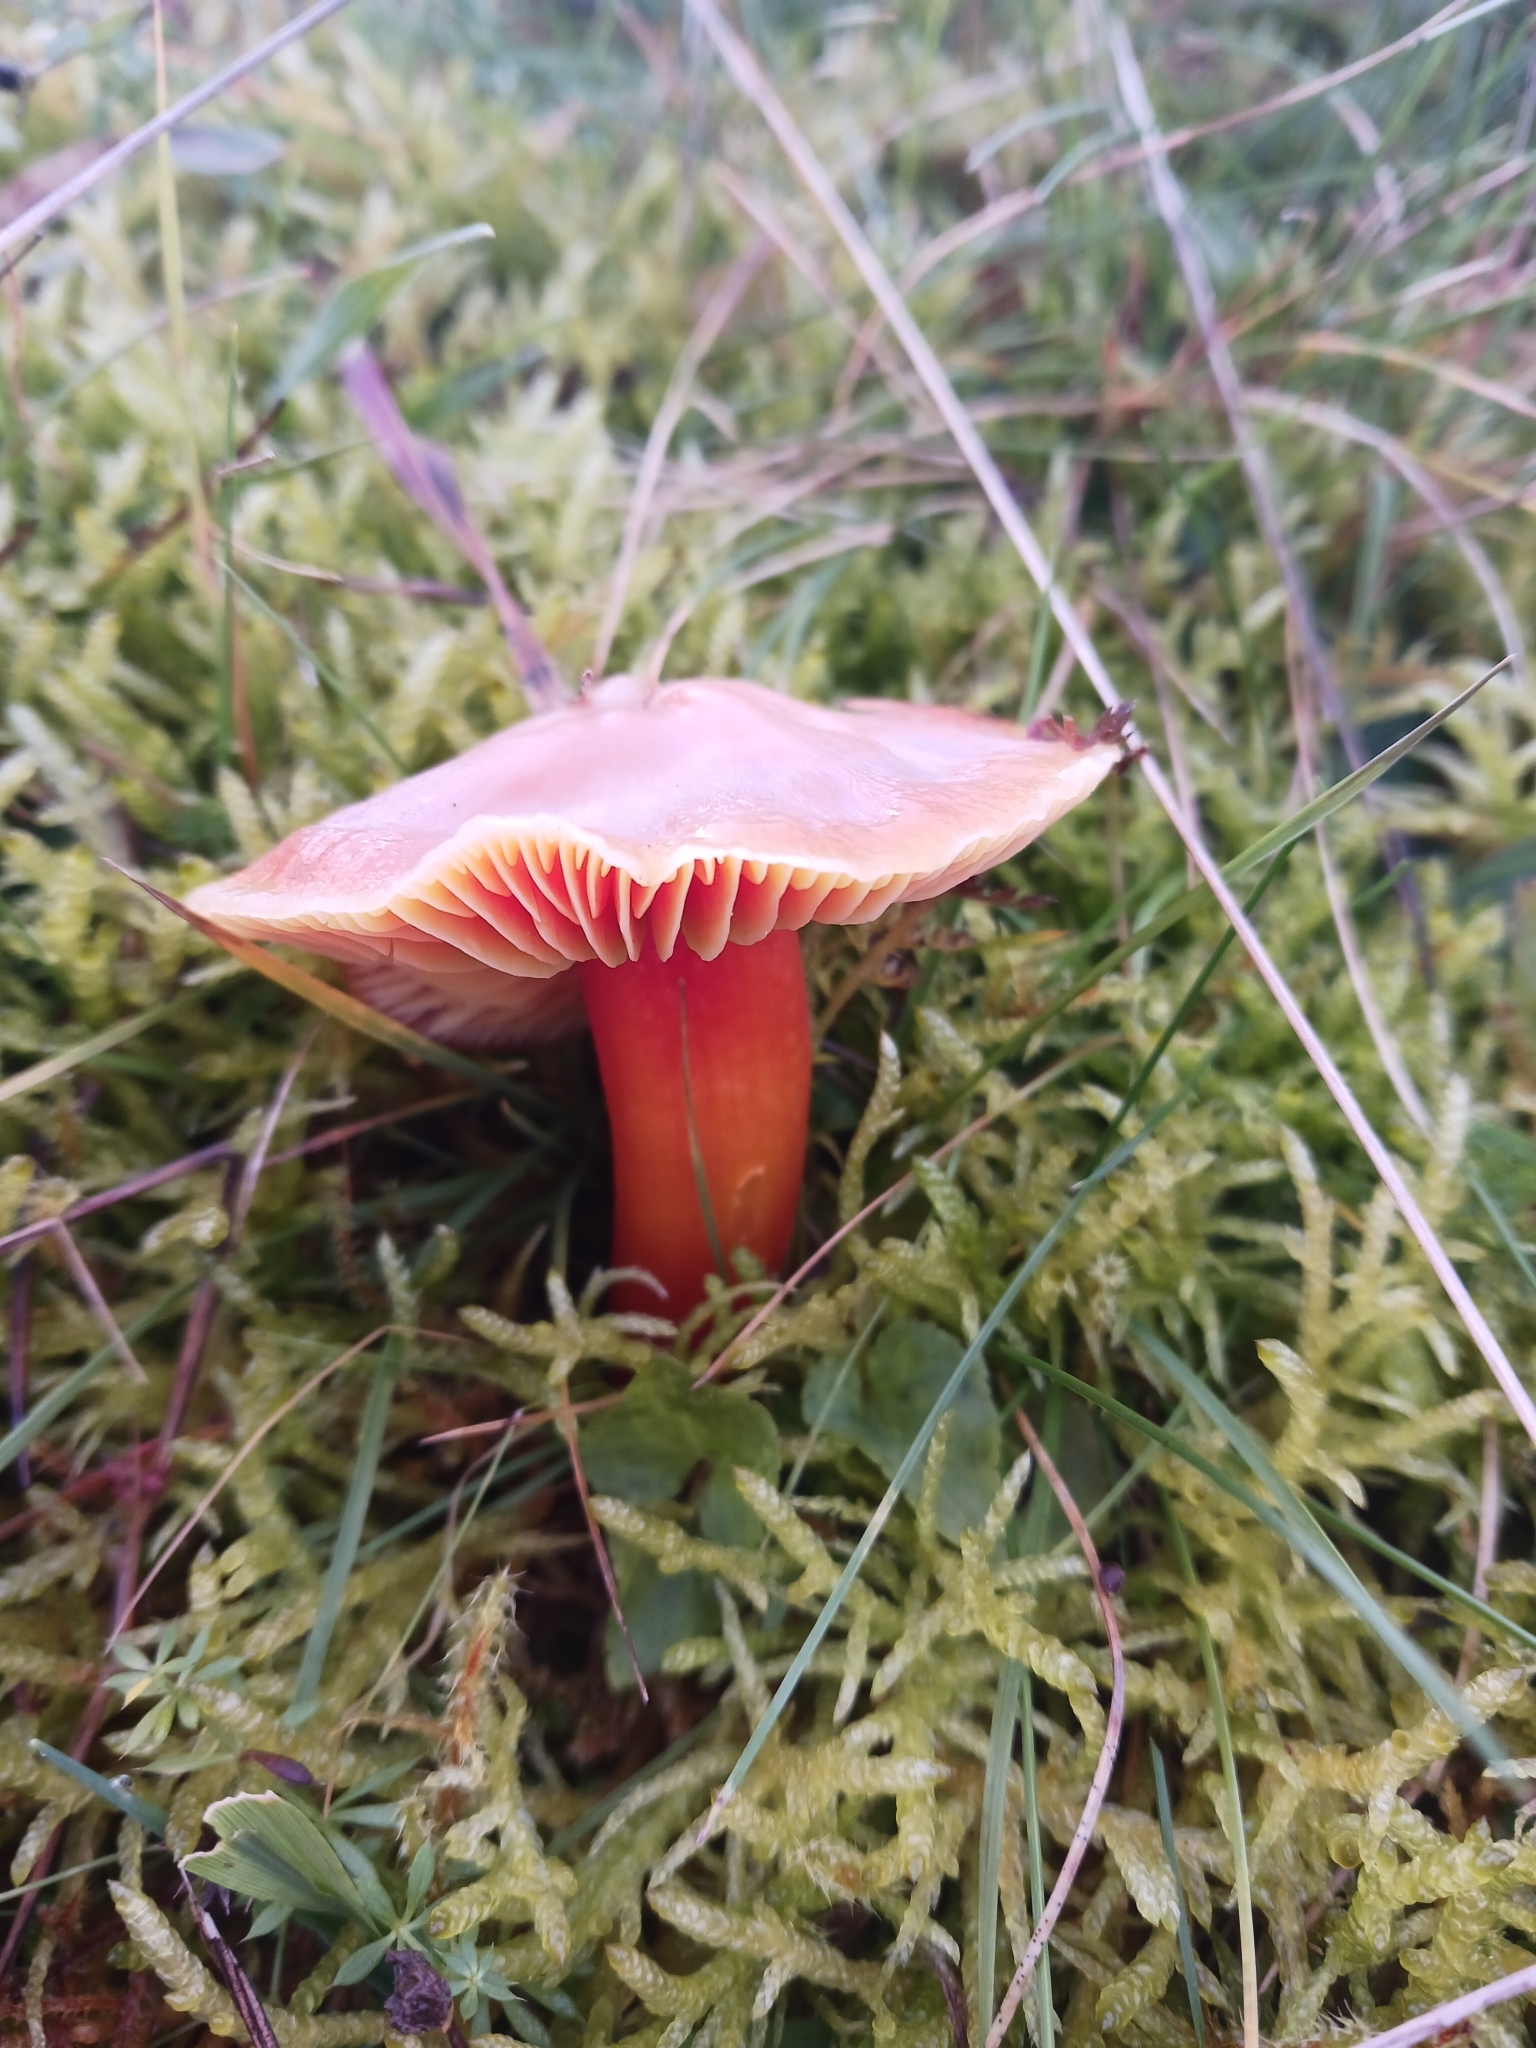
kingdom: Fungi
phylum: Basidiomycota
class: Agaricomycetes
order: Agaricales
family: Hygrophoraceae
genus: Hygrocybe
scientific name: Hygrocybe punicea
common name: Crimson waxcap
